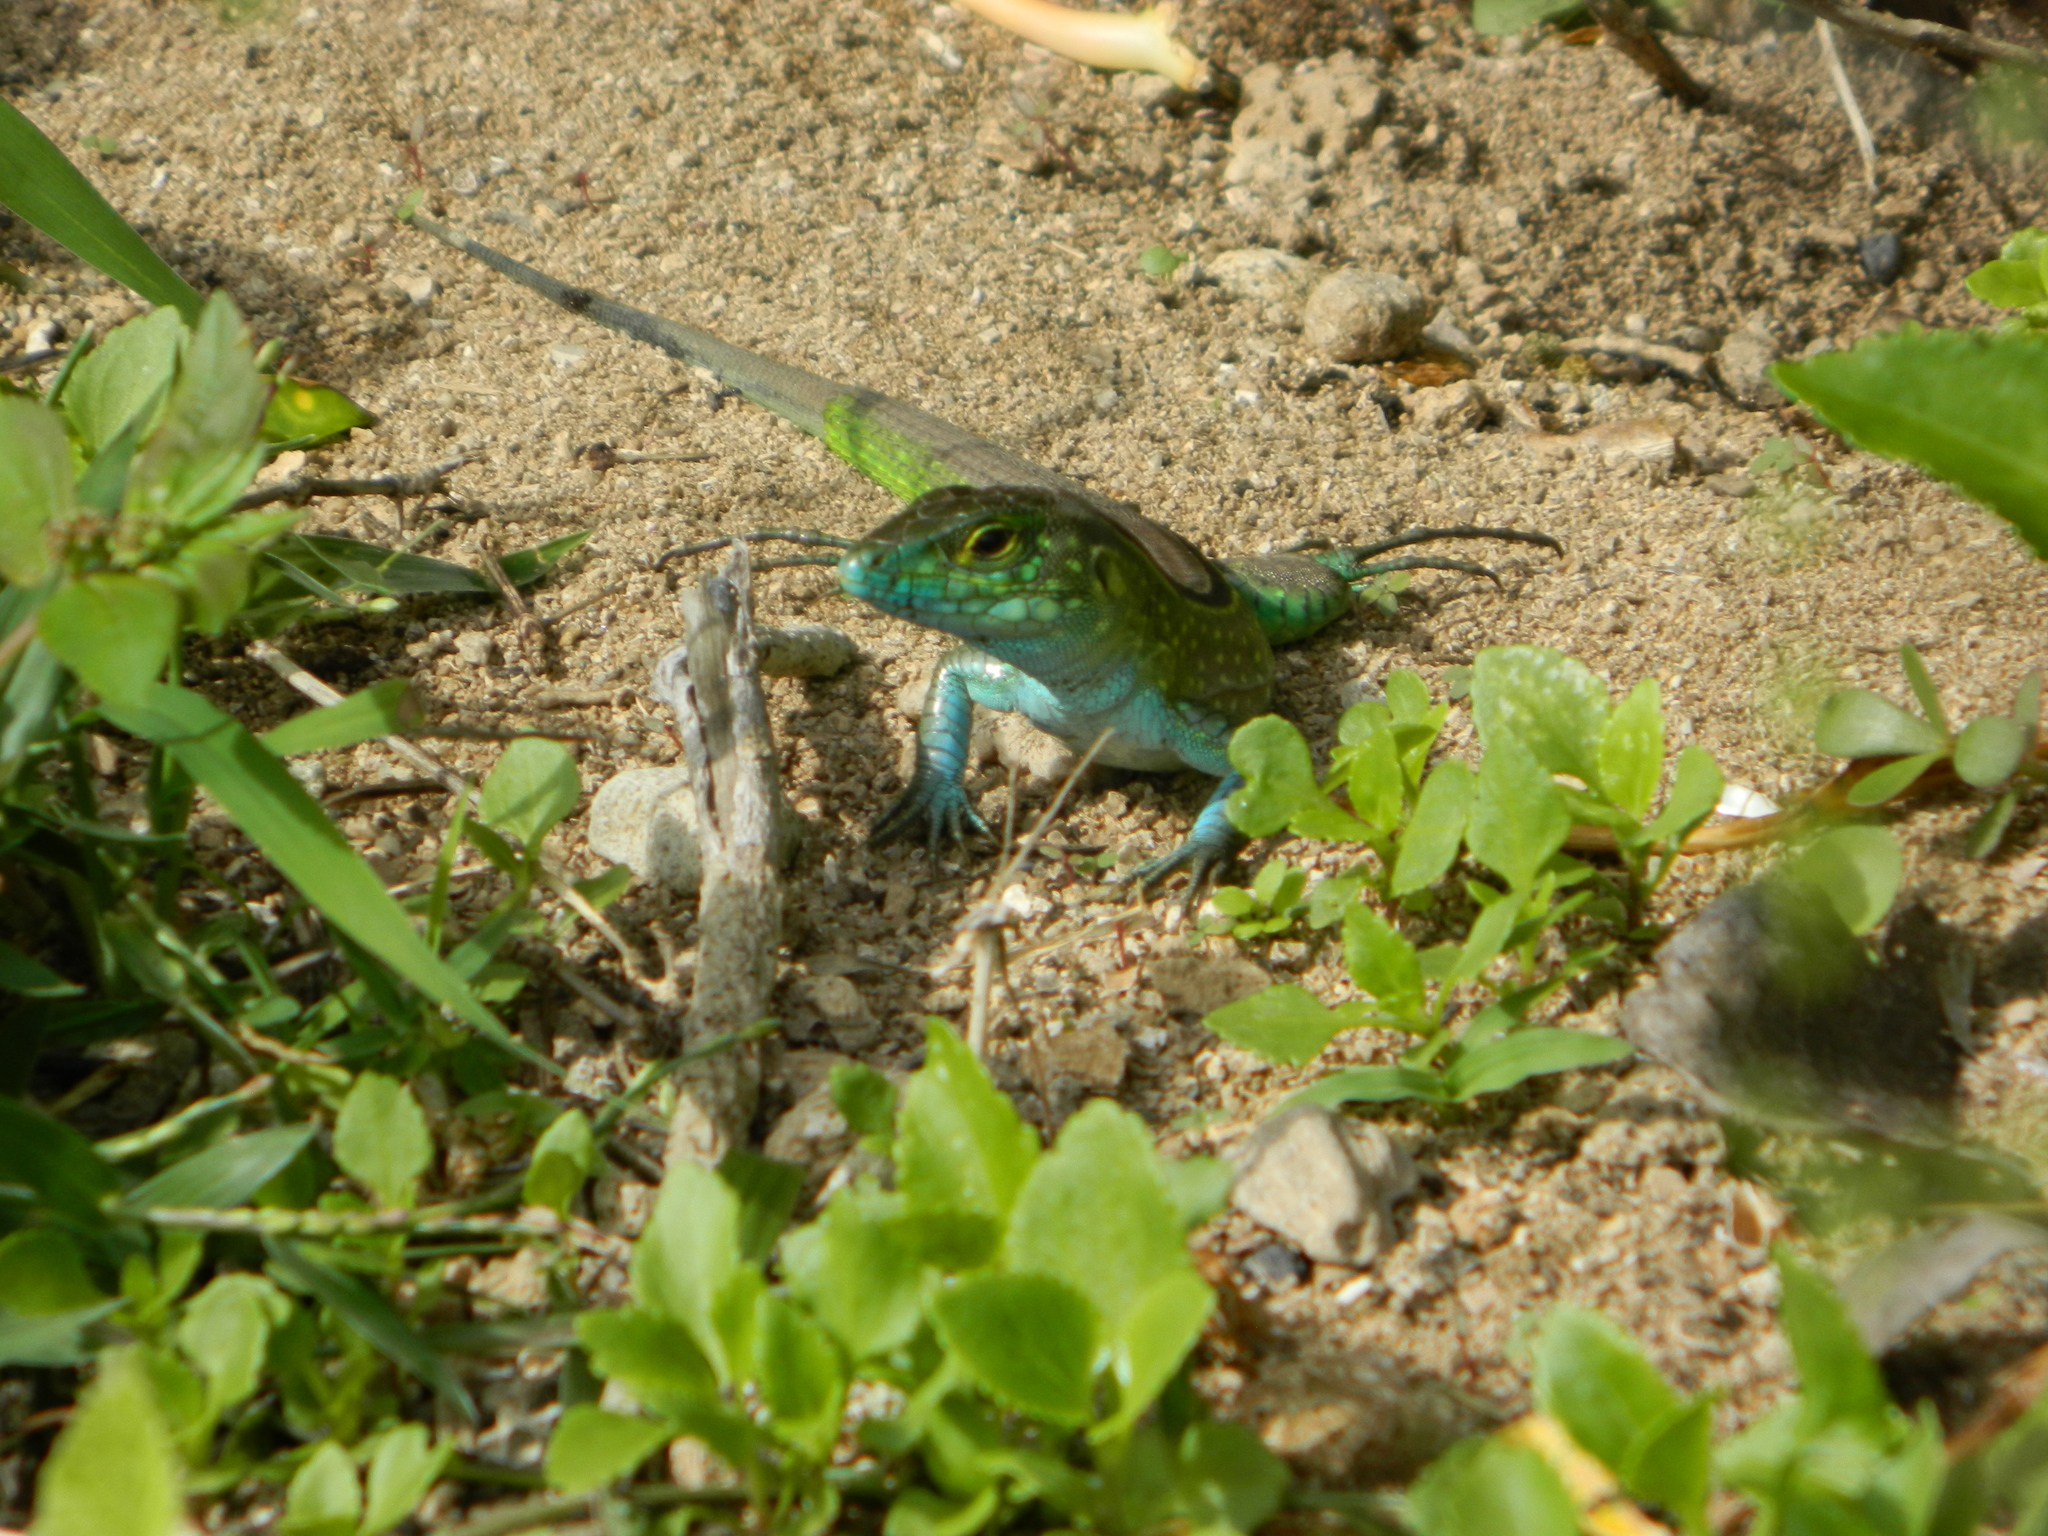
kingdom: Animalia
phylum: Chordata
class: Squamata
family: Teiidae
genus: Cnemidophorus
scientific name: Cnemidophorus ruatanus
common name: Central american whiptail
